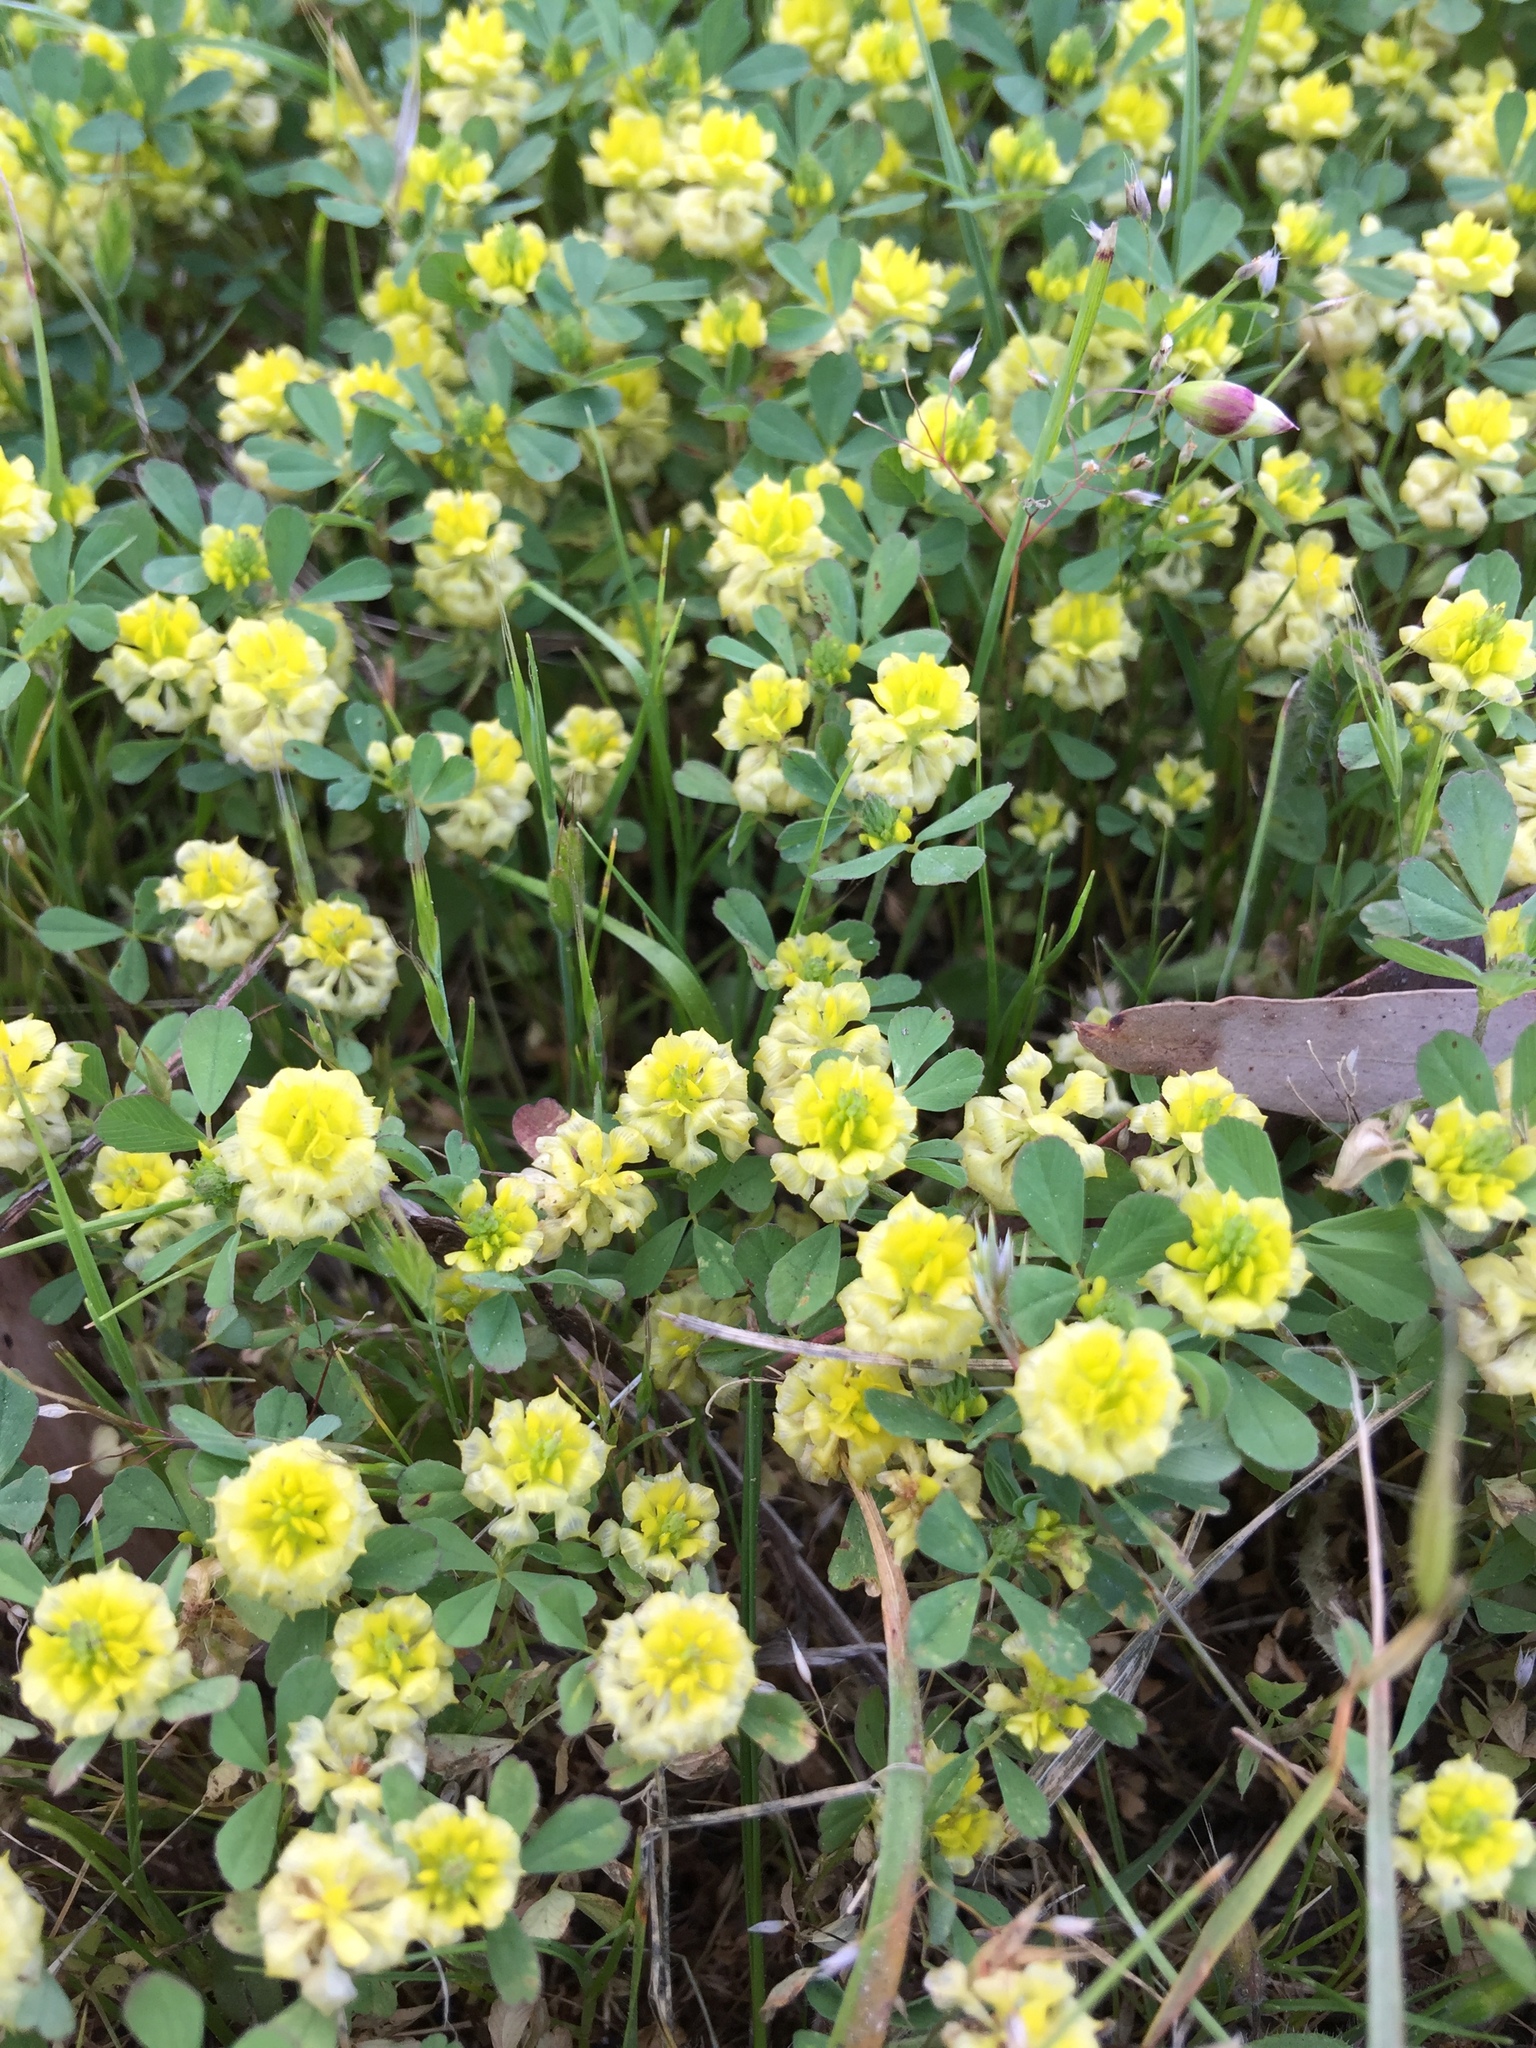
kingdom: Plantae
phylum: Tracheophyta
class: Magnoliopsida
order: Fabales
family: Fabaceae
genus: Trifolium
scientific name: Trifolium campestre
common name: Field clover
